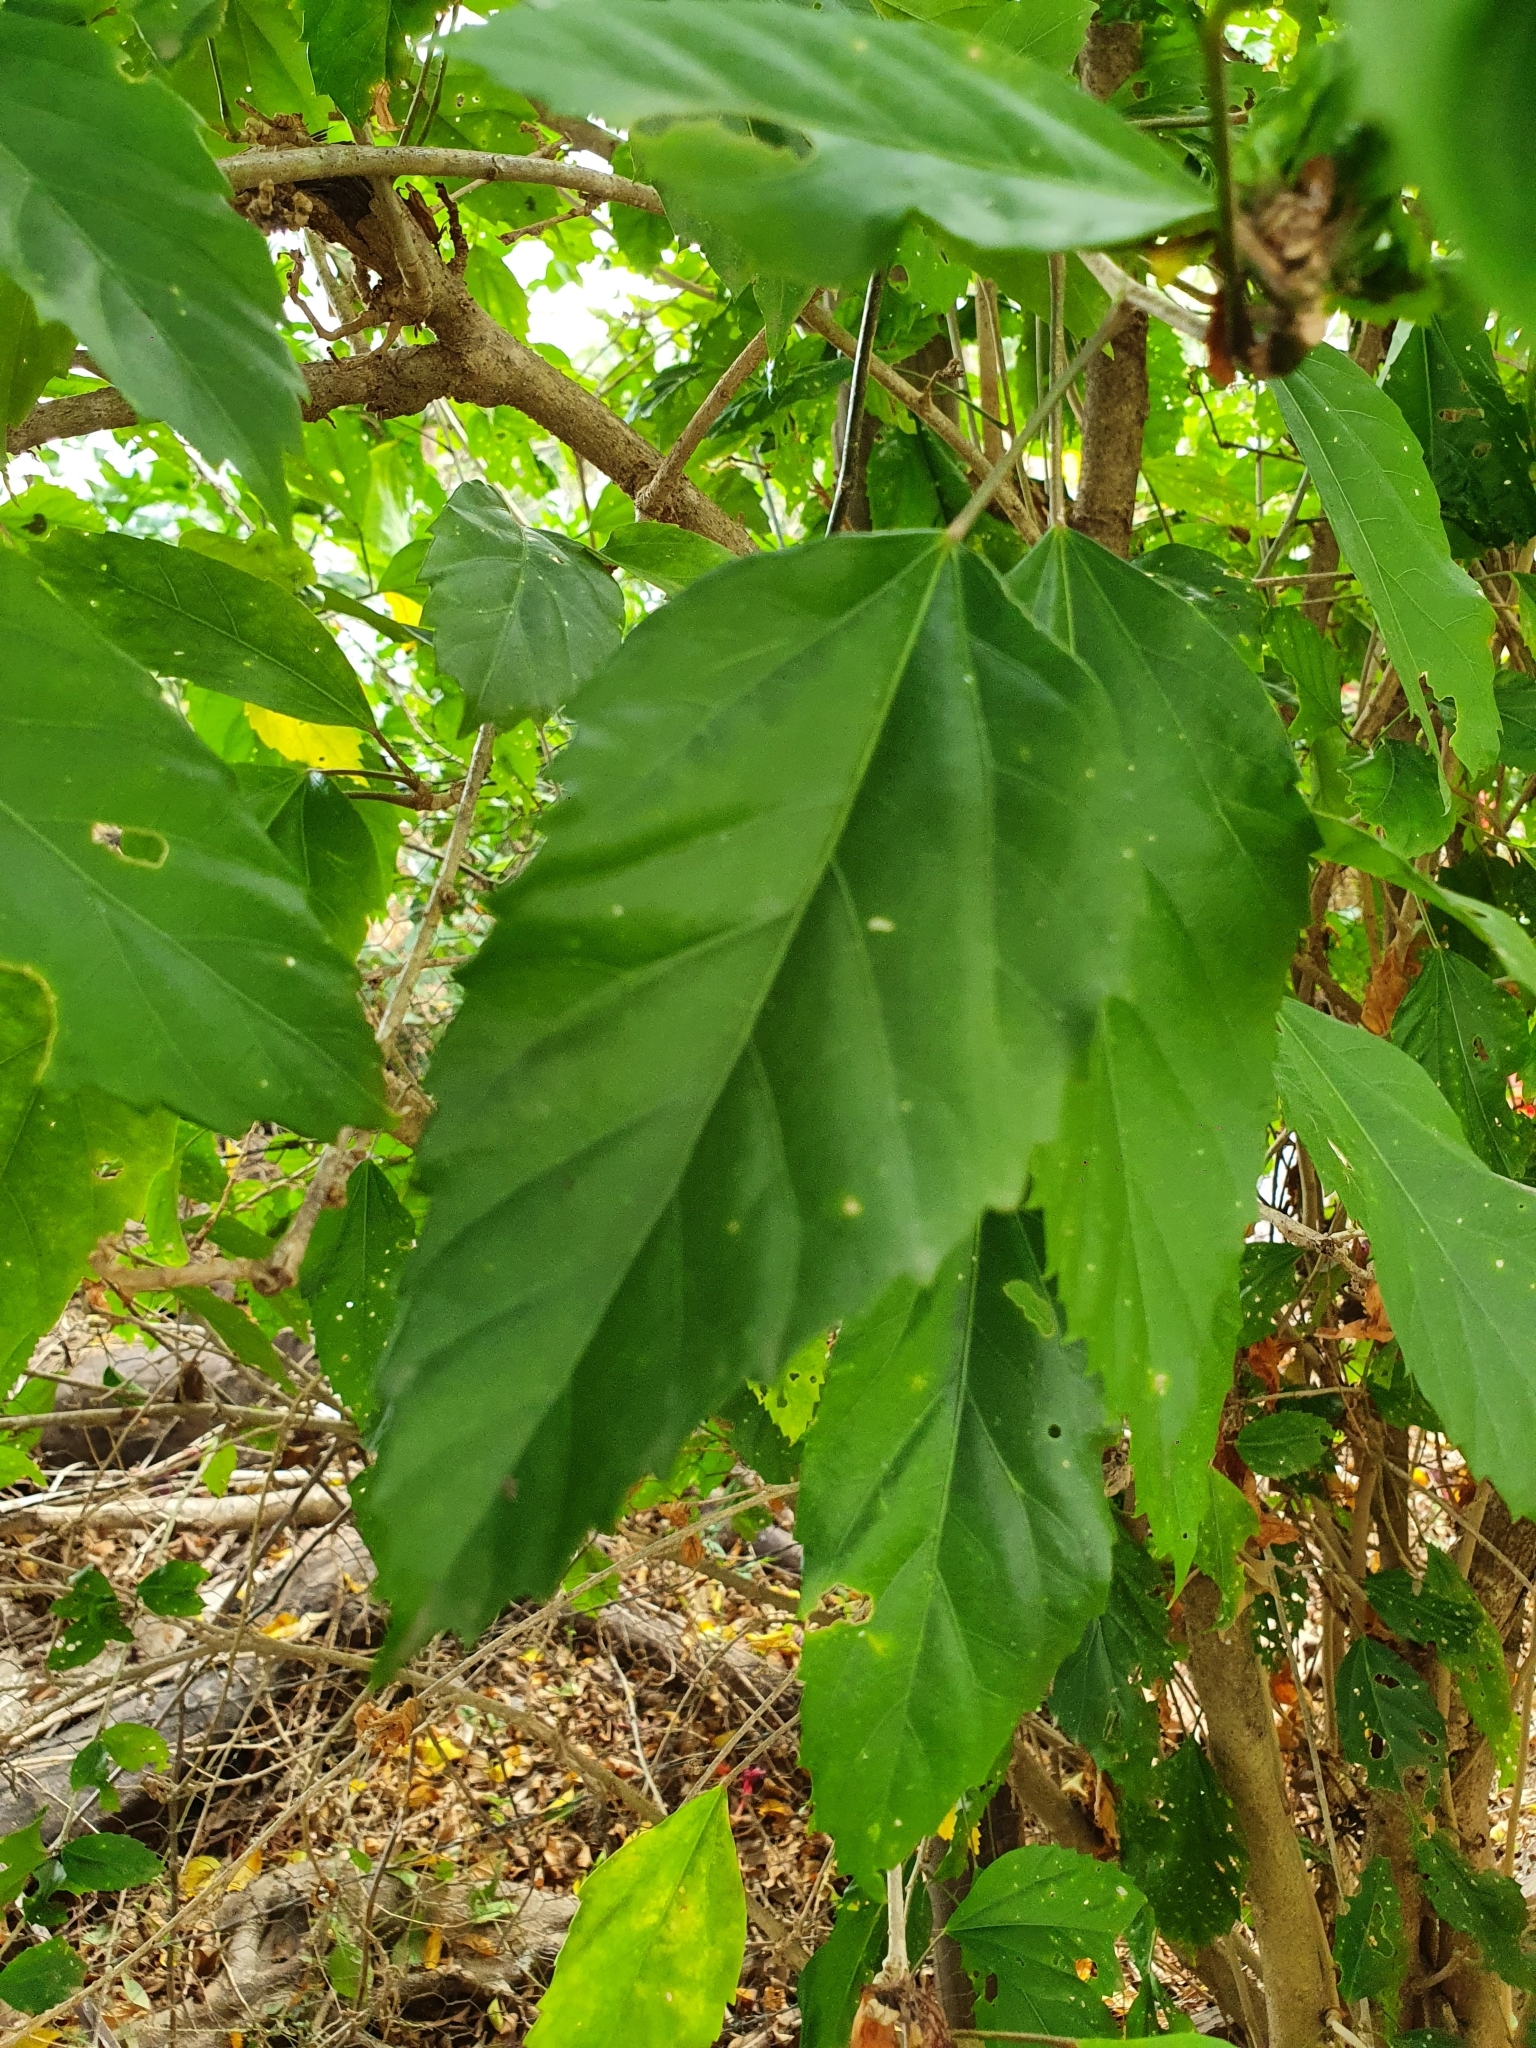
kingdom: Plantae
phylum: Tracheophyta
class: Magnoliopsida
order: Malvales
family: Malvaceae
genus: Hibiscus
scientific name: Hibiscus archeri
